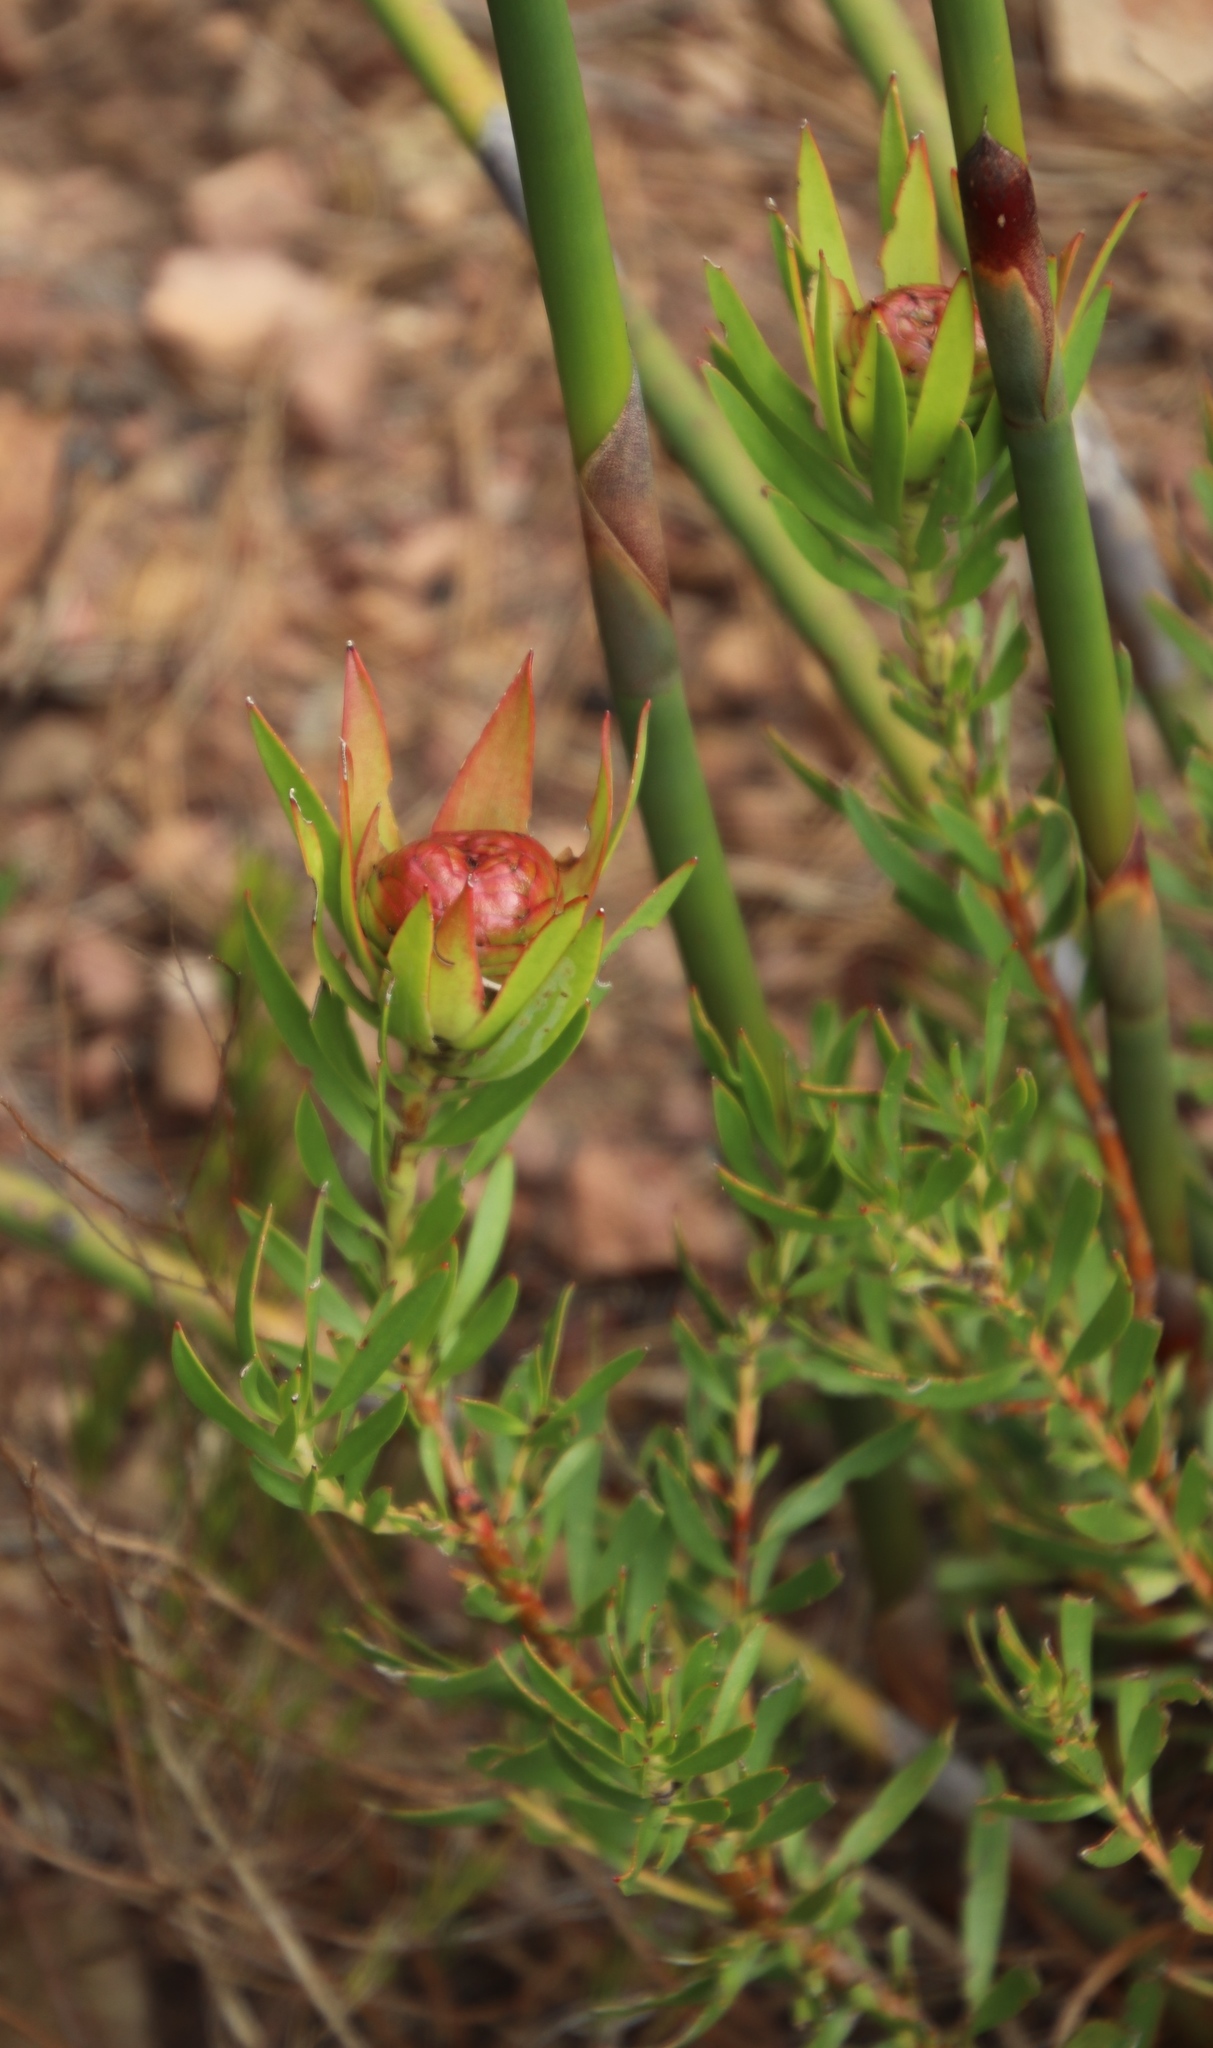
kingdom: Plantae
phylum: Tracheophyta
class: Magnoliopsida
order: Proteales
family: Proteaceae
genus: Leucadendron
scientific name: Leucadendron spissifolium
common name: Spear-leaf conebush
